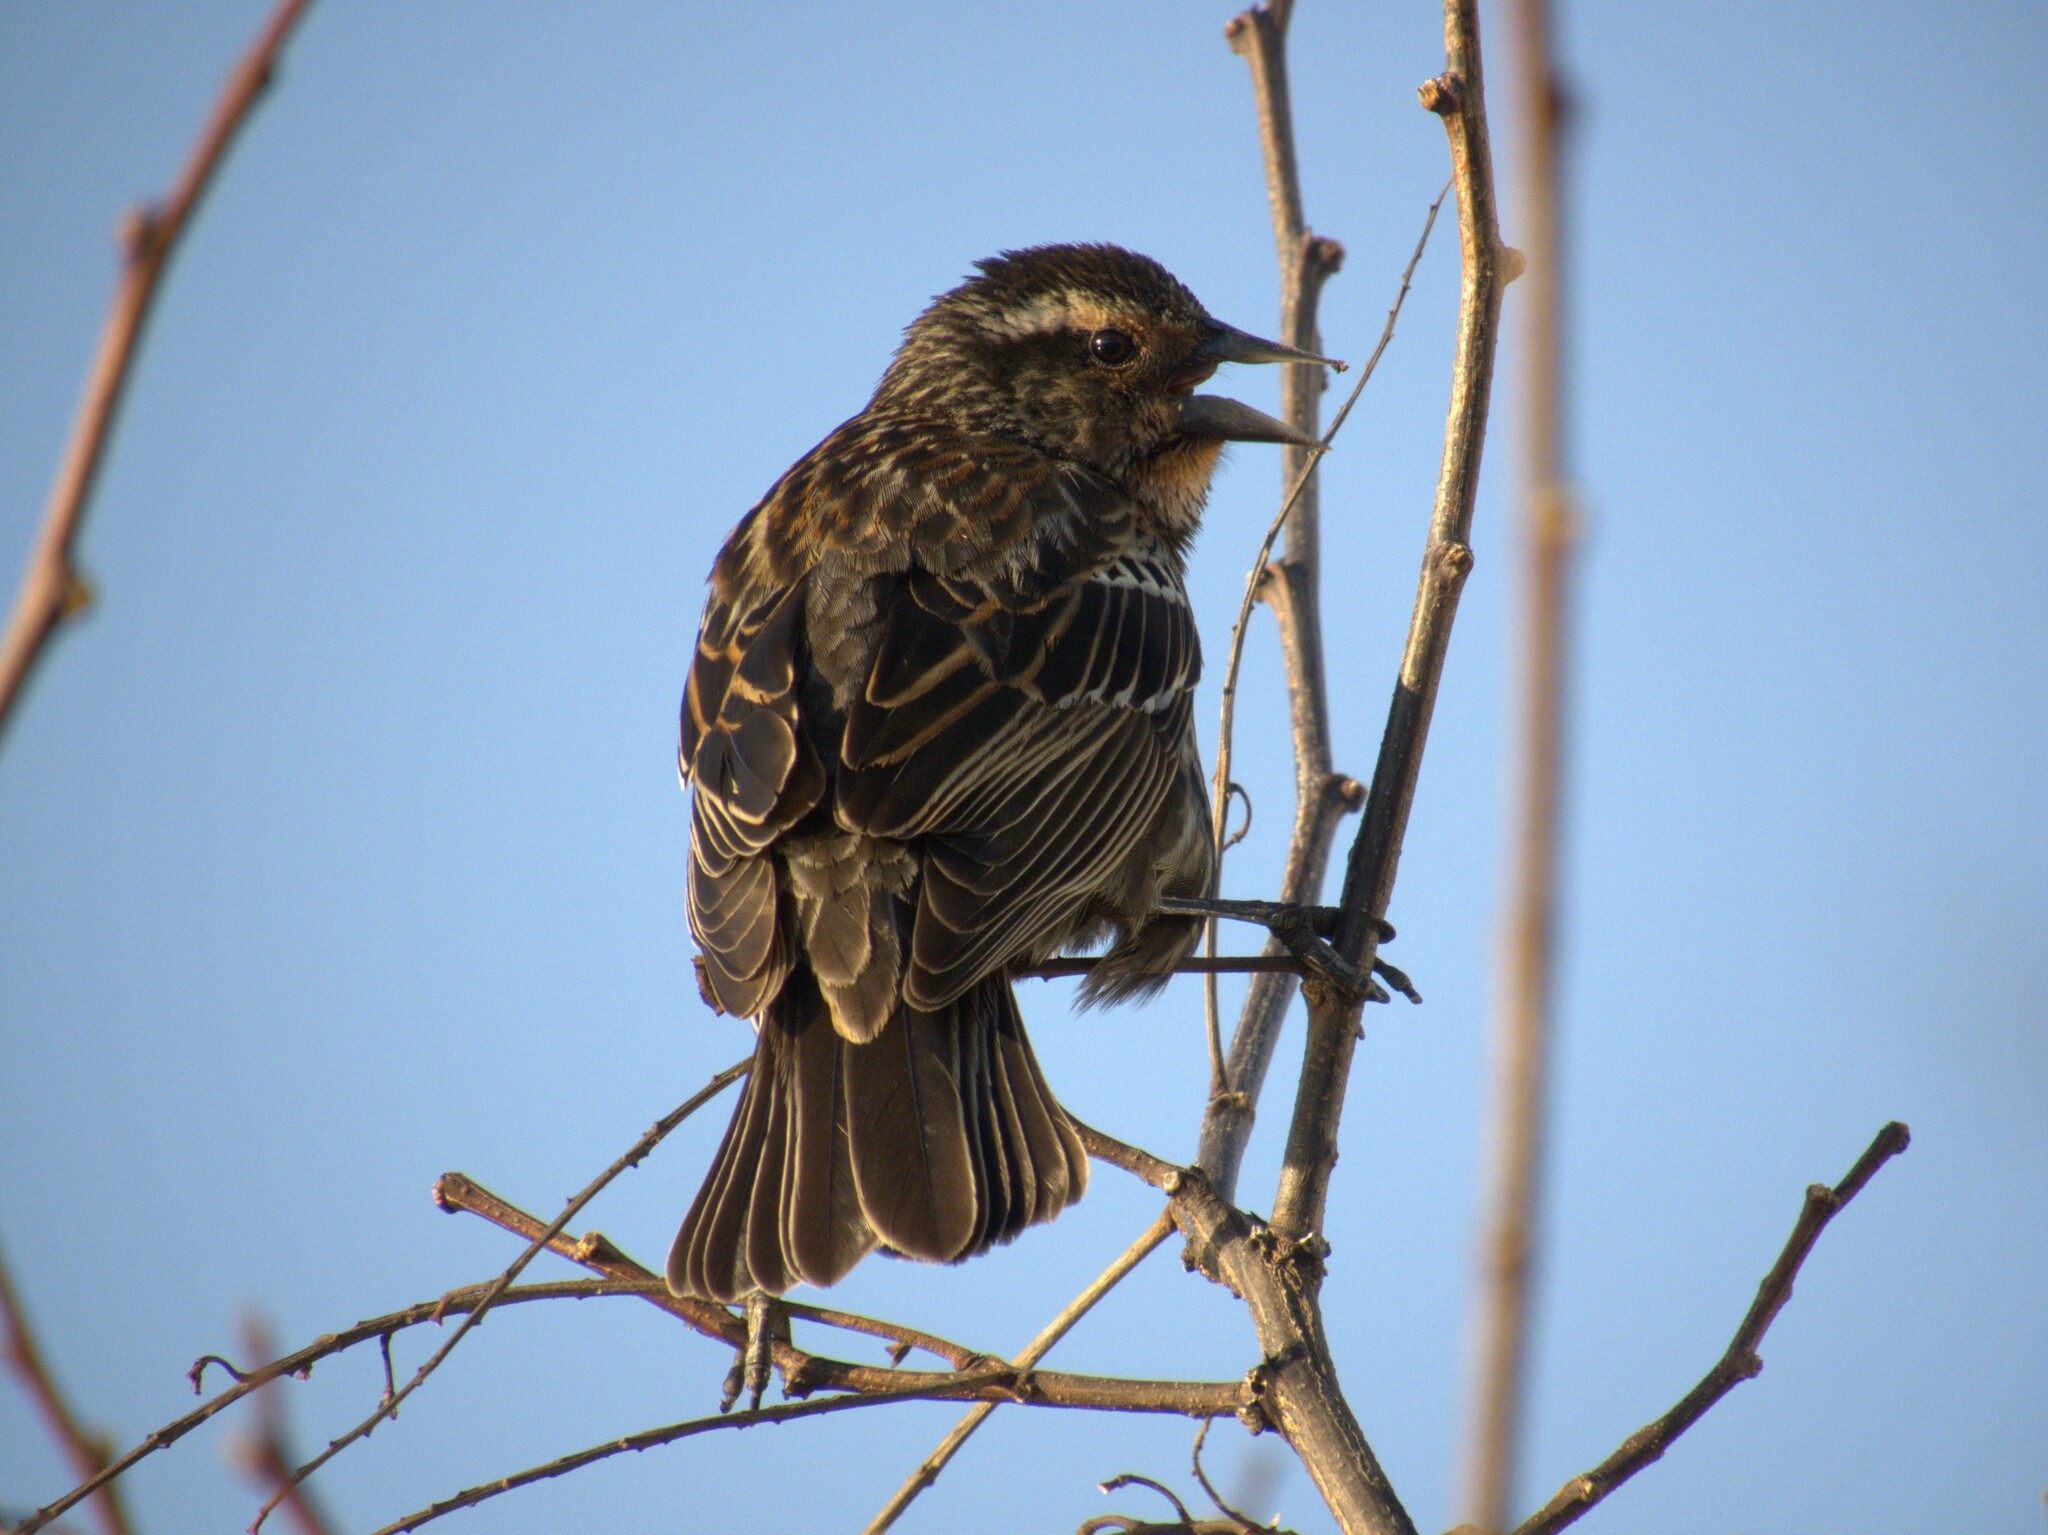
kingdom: Animalia
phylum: Chordata
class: Aves
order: Passeriformes
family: Icteridae
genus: Agelaius
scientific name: Agelaius phoeniceus
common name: Red-winged blackbird
